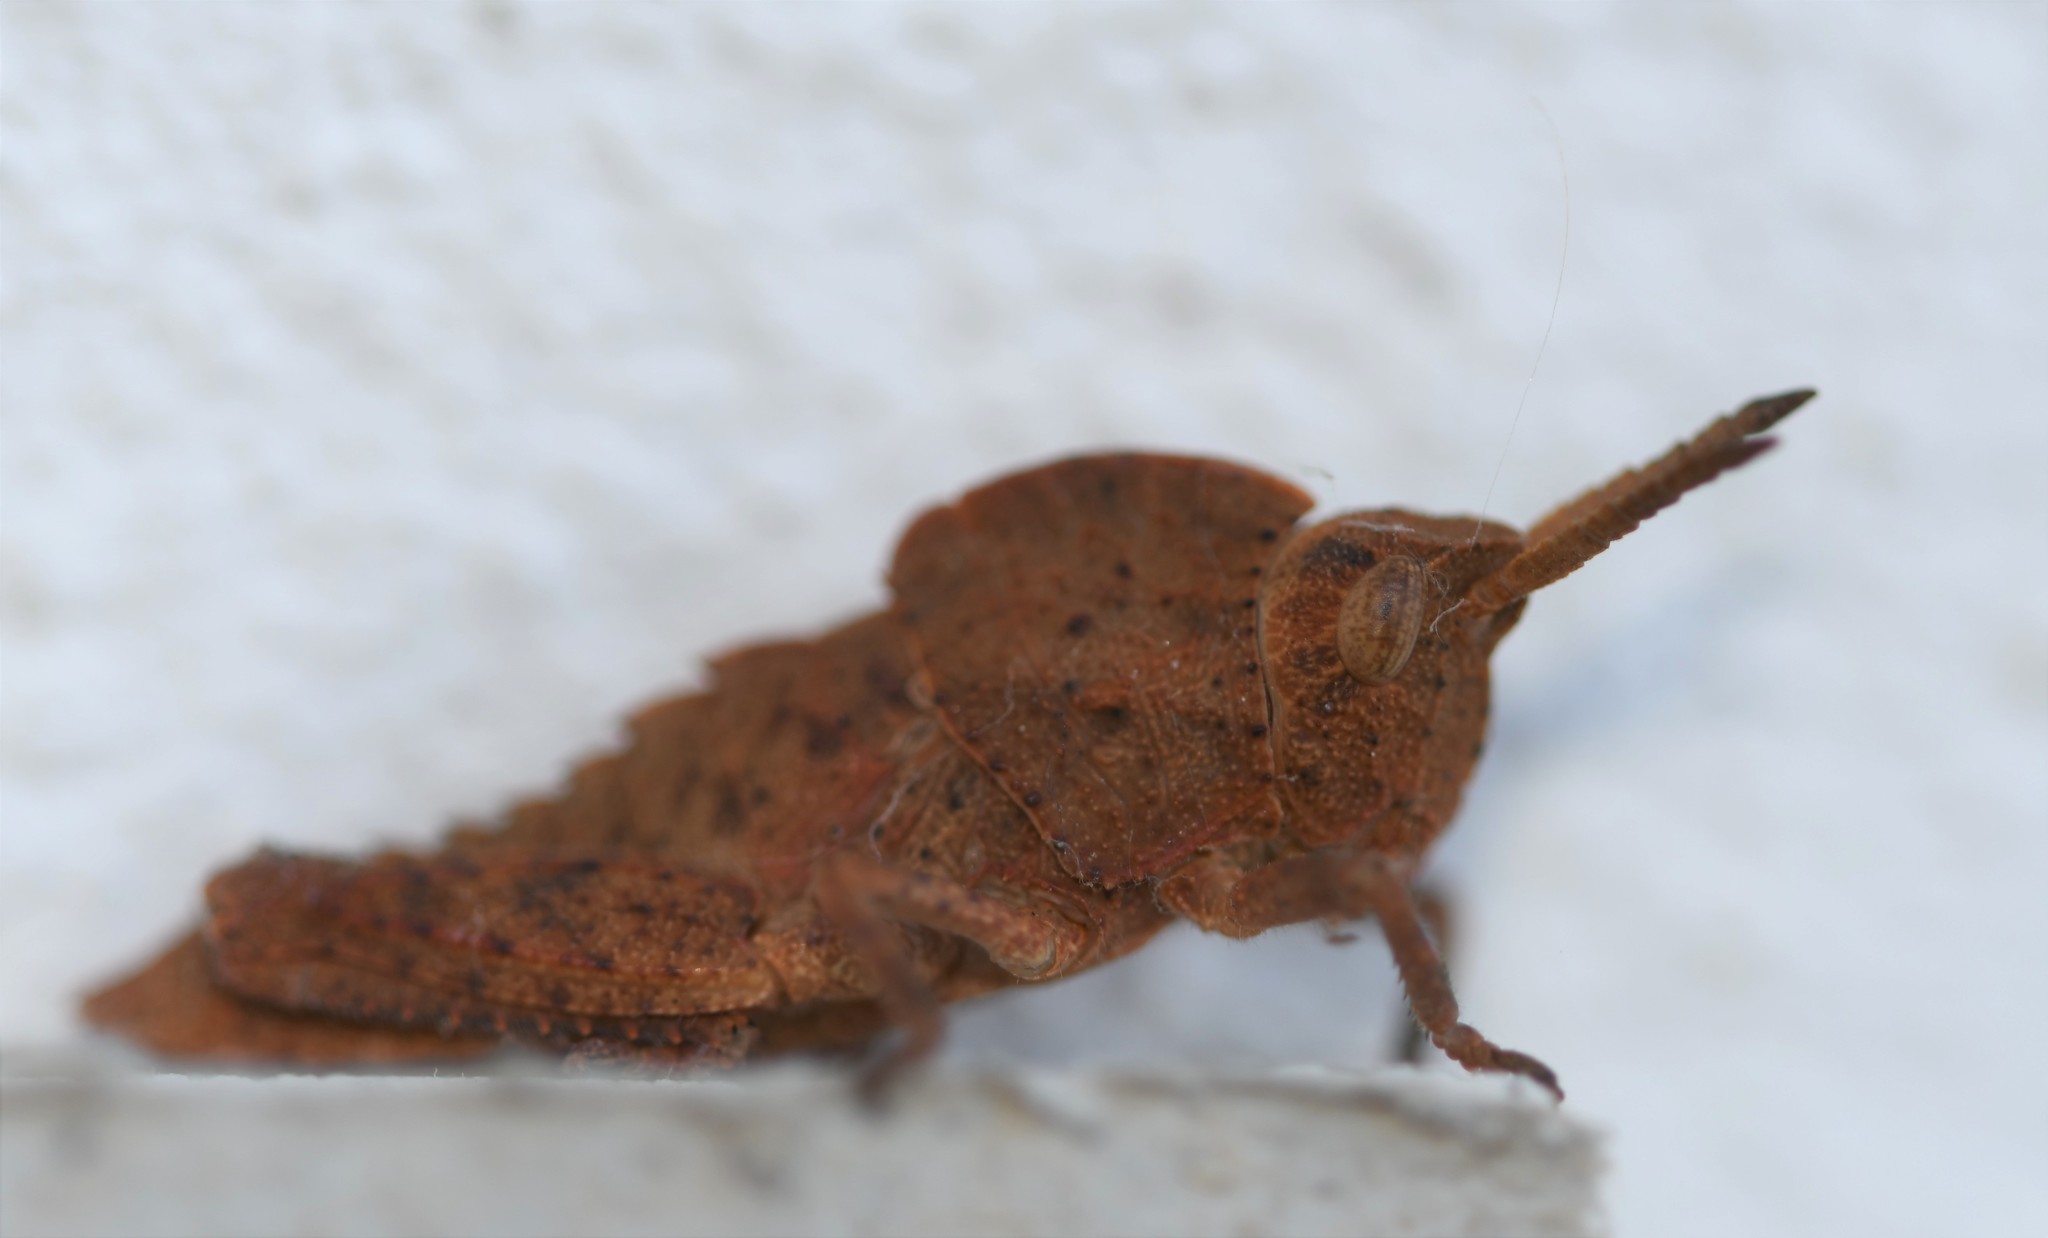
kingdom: Animalia
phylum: Arthropoda
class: Insecta
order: Orthoptera
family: Pamphagidae
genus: Eumigus
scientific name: Eumigus ayresi
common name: Ayres' stone grasshopper
